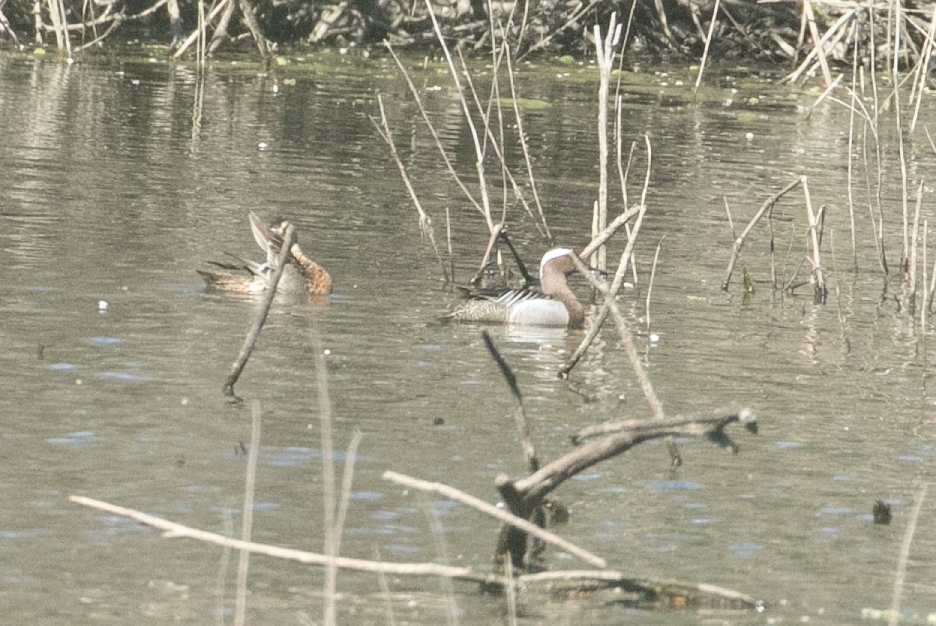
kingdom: Animalia
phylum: Chordata
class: Aves
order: Anseriformes
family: Anatidae
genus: Spatula
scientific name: Spatula querquedula
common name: Garganey
